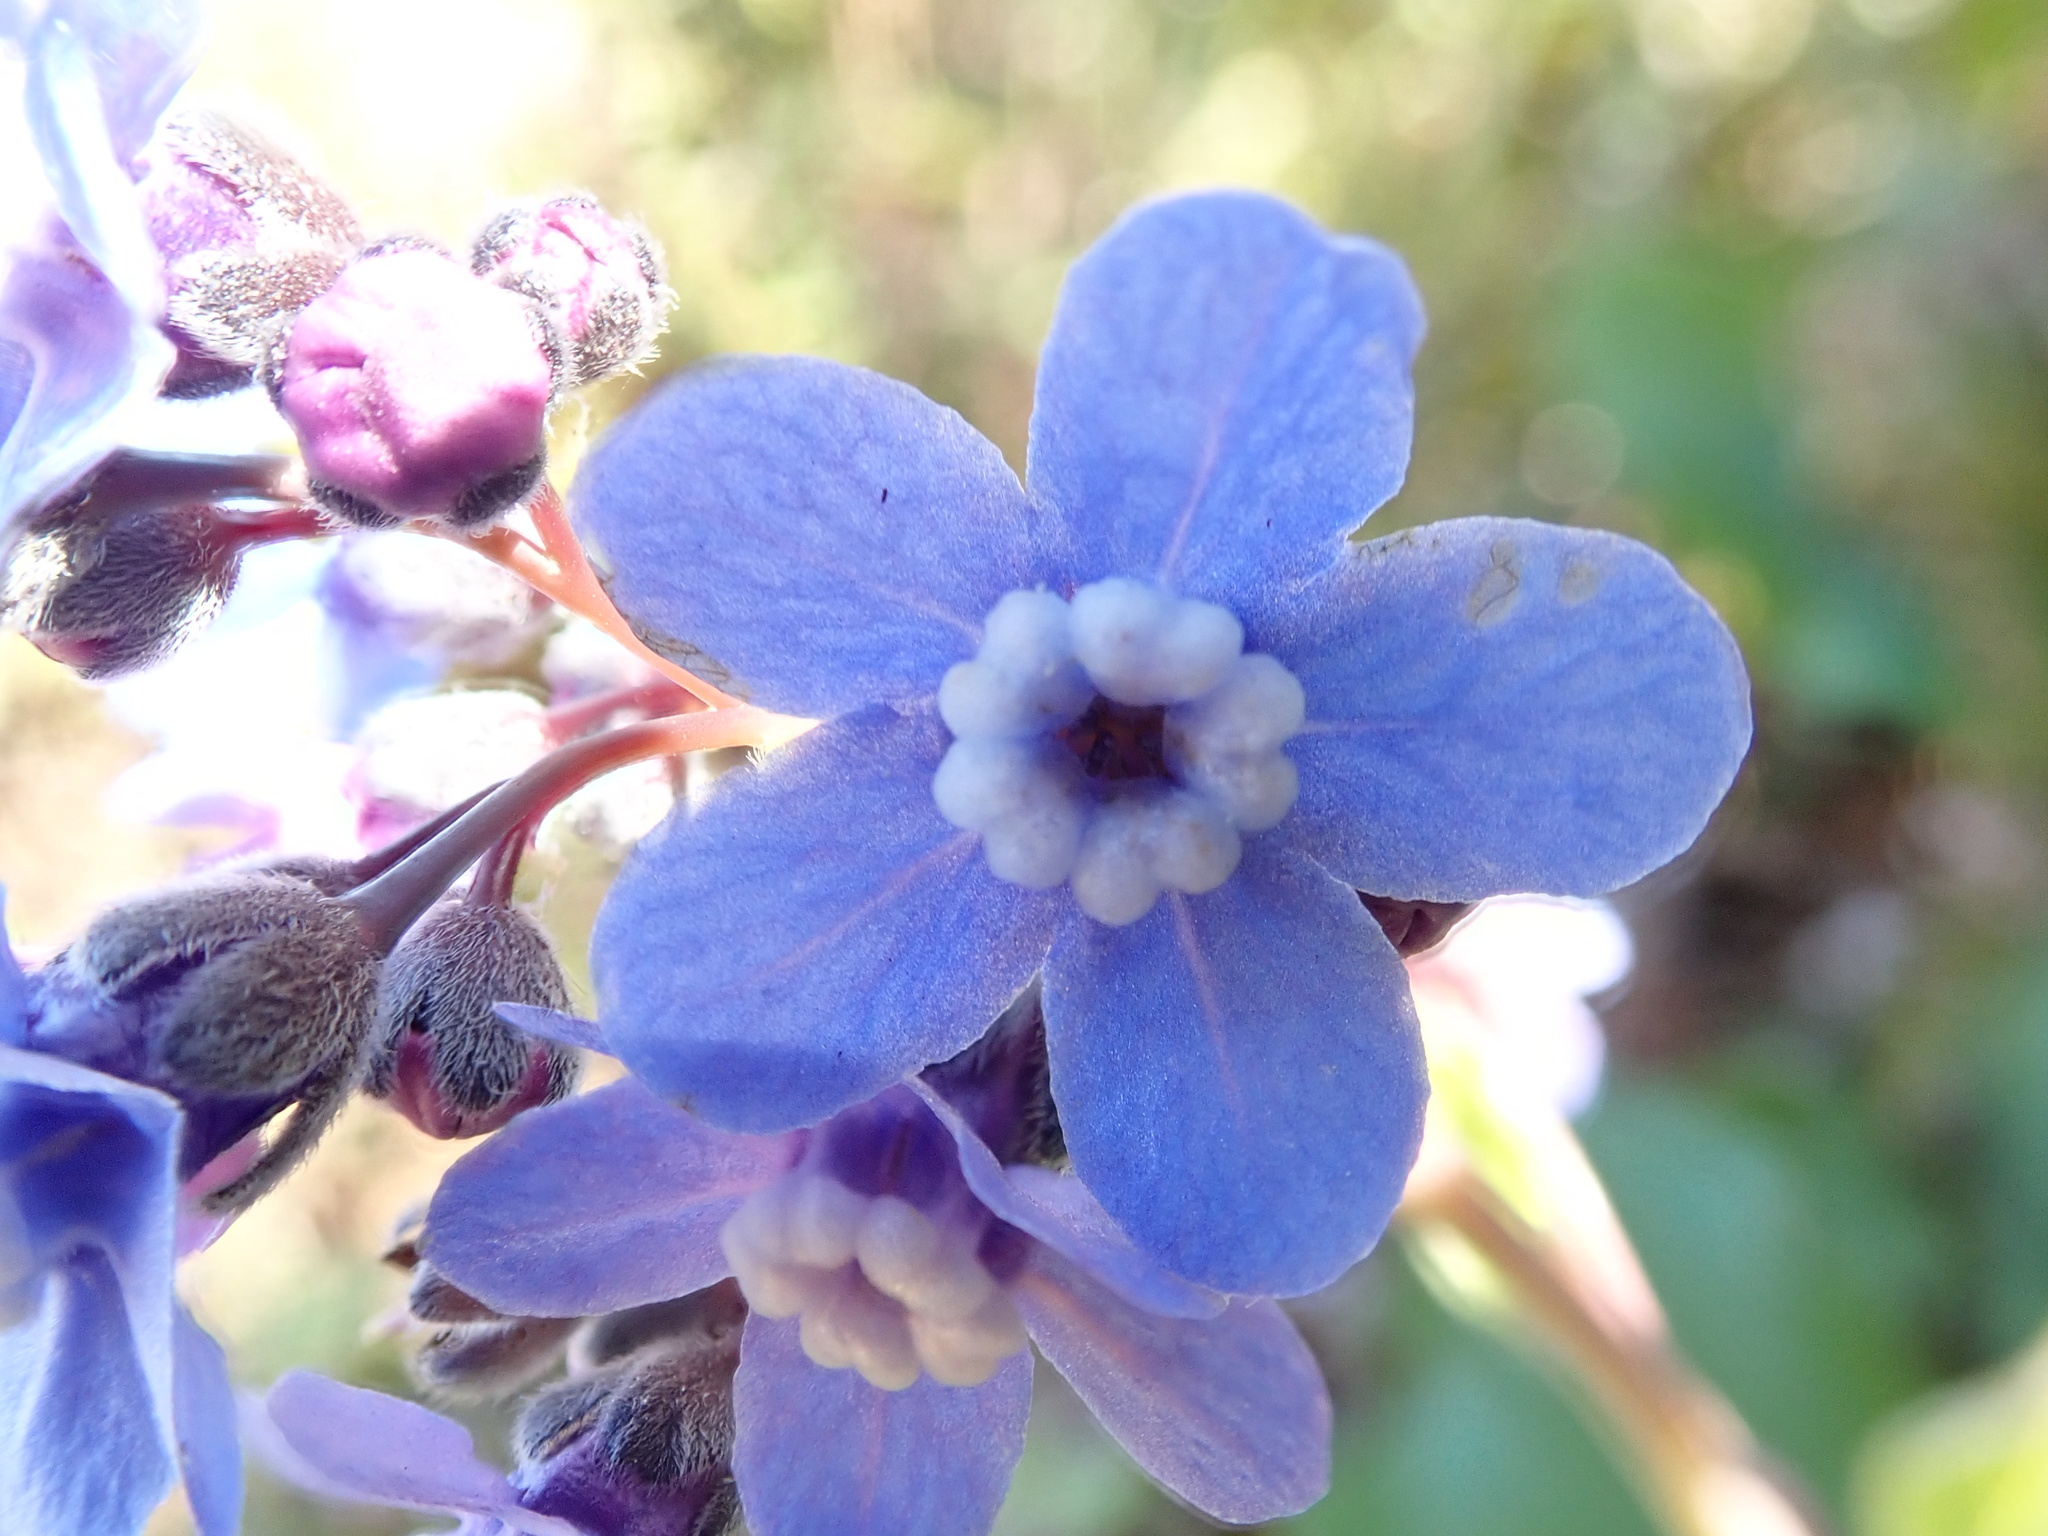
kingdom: Plantae
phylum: Tracheophyta
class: Magnoliopsida
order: Boraginales
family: Boraginaceae
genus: Adelinia
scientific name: Adelinia grande
